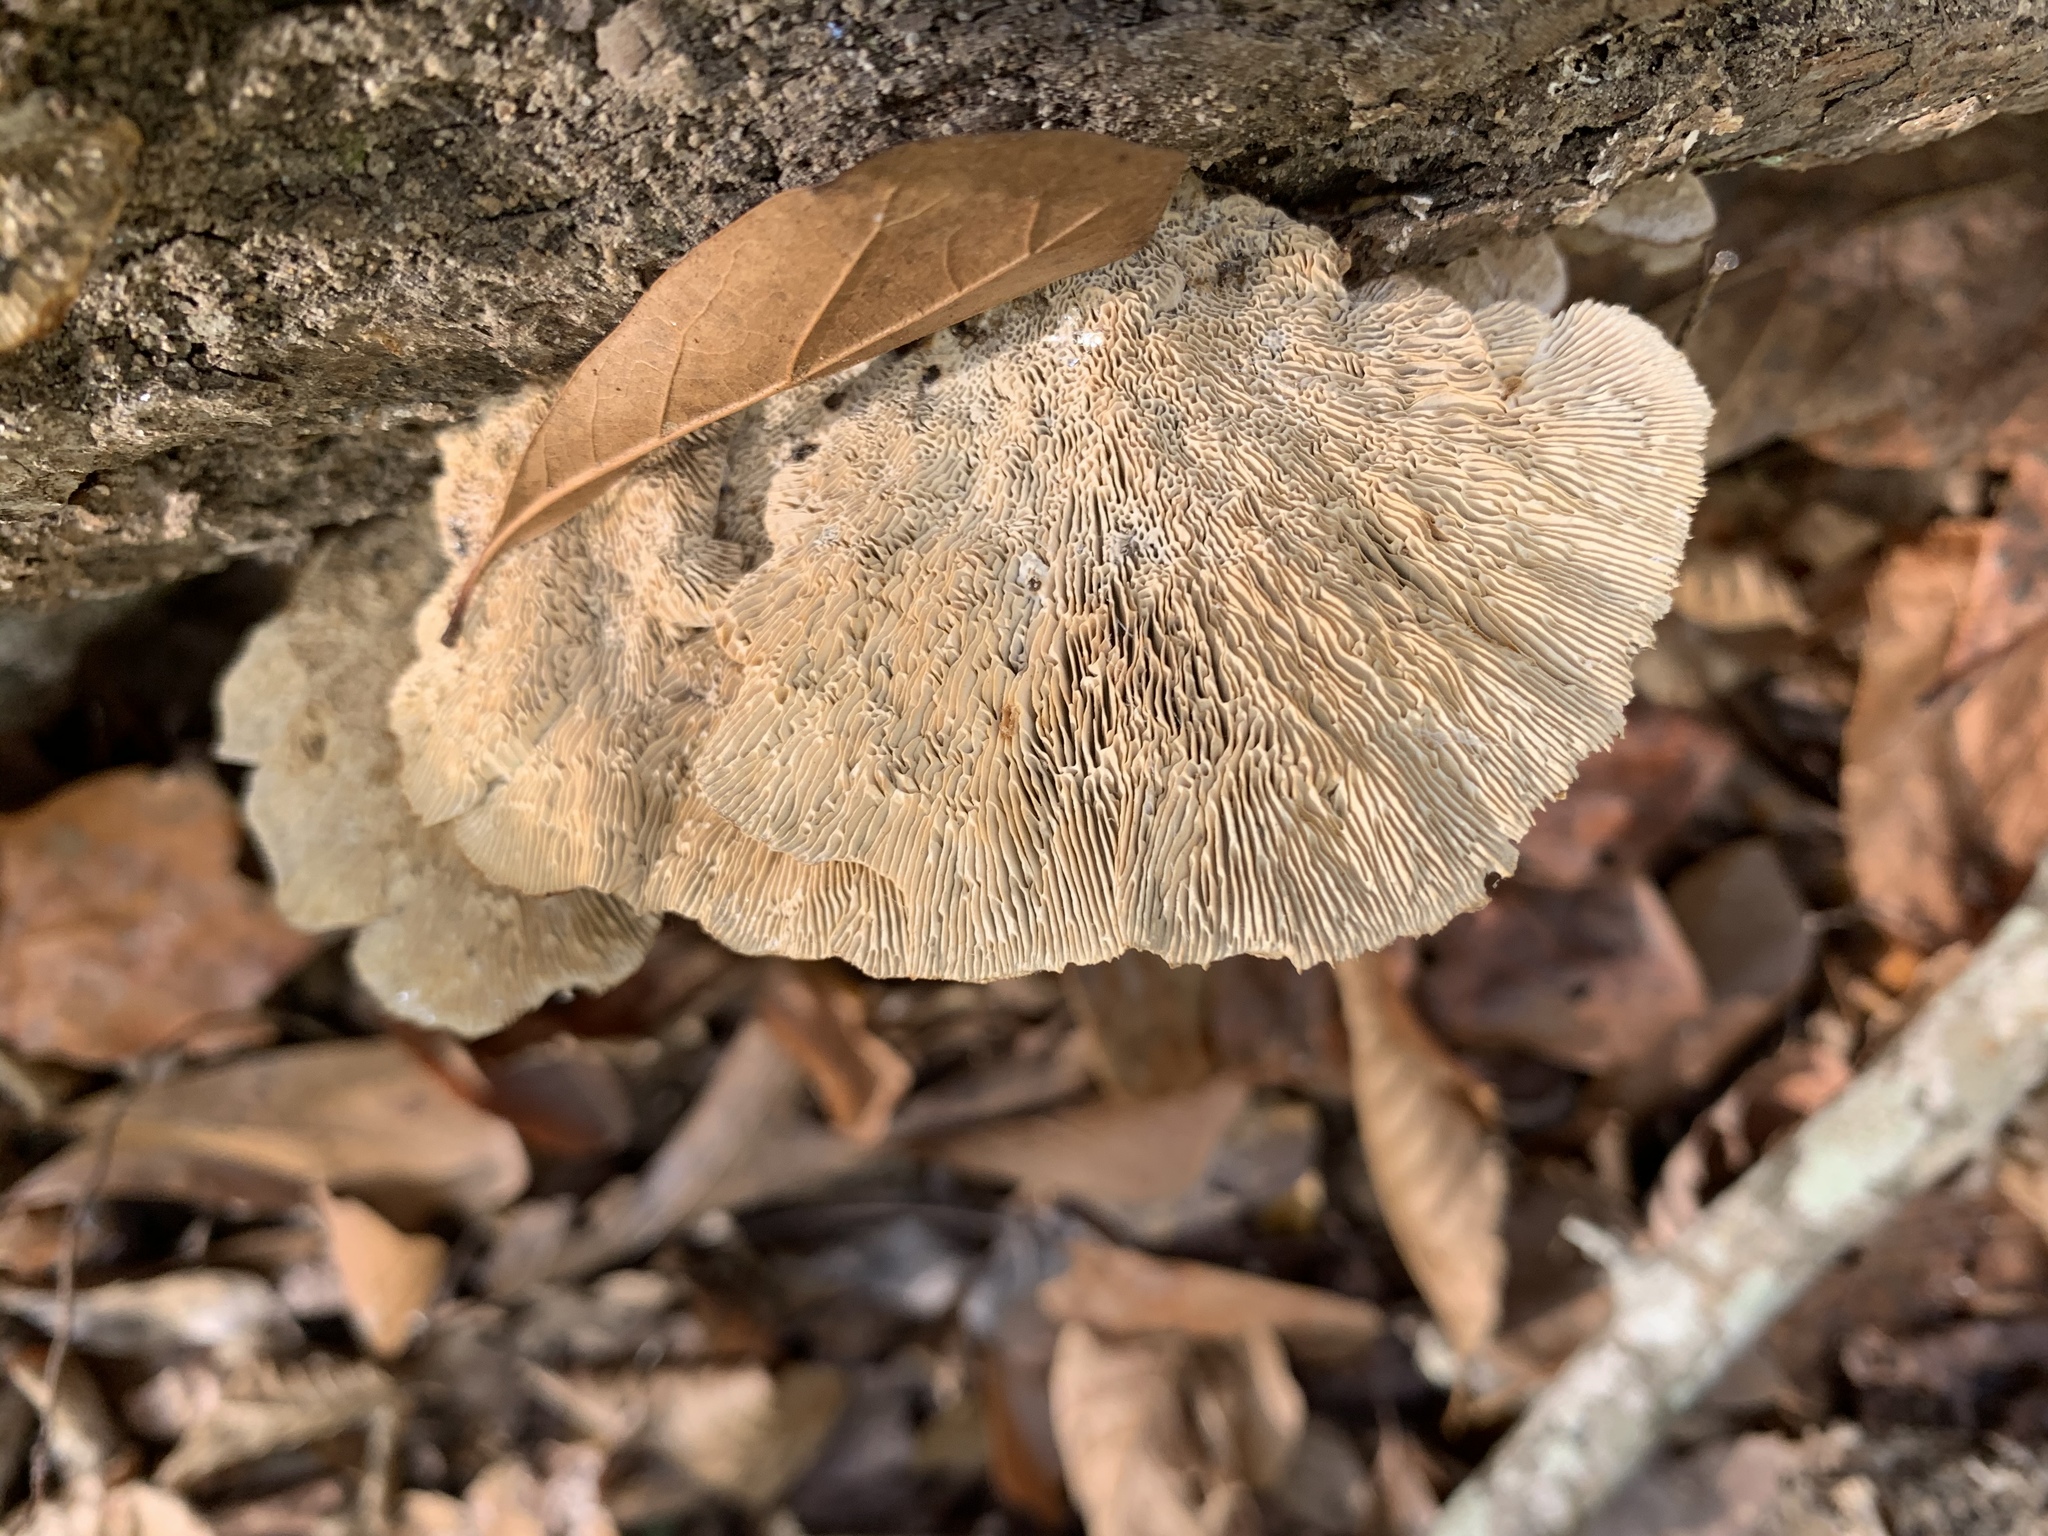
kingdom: Fungi
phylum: Basidiomycota
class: Agaricomycetes
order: Polyporales
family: Polyporaceae
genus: Daedaleopsis
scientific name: Daedaleopsis confragosa
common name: Blushing bracket
